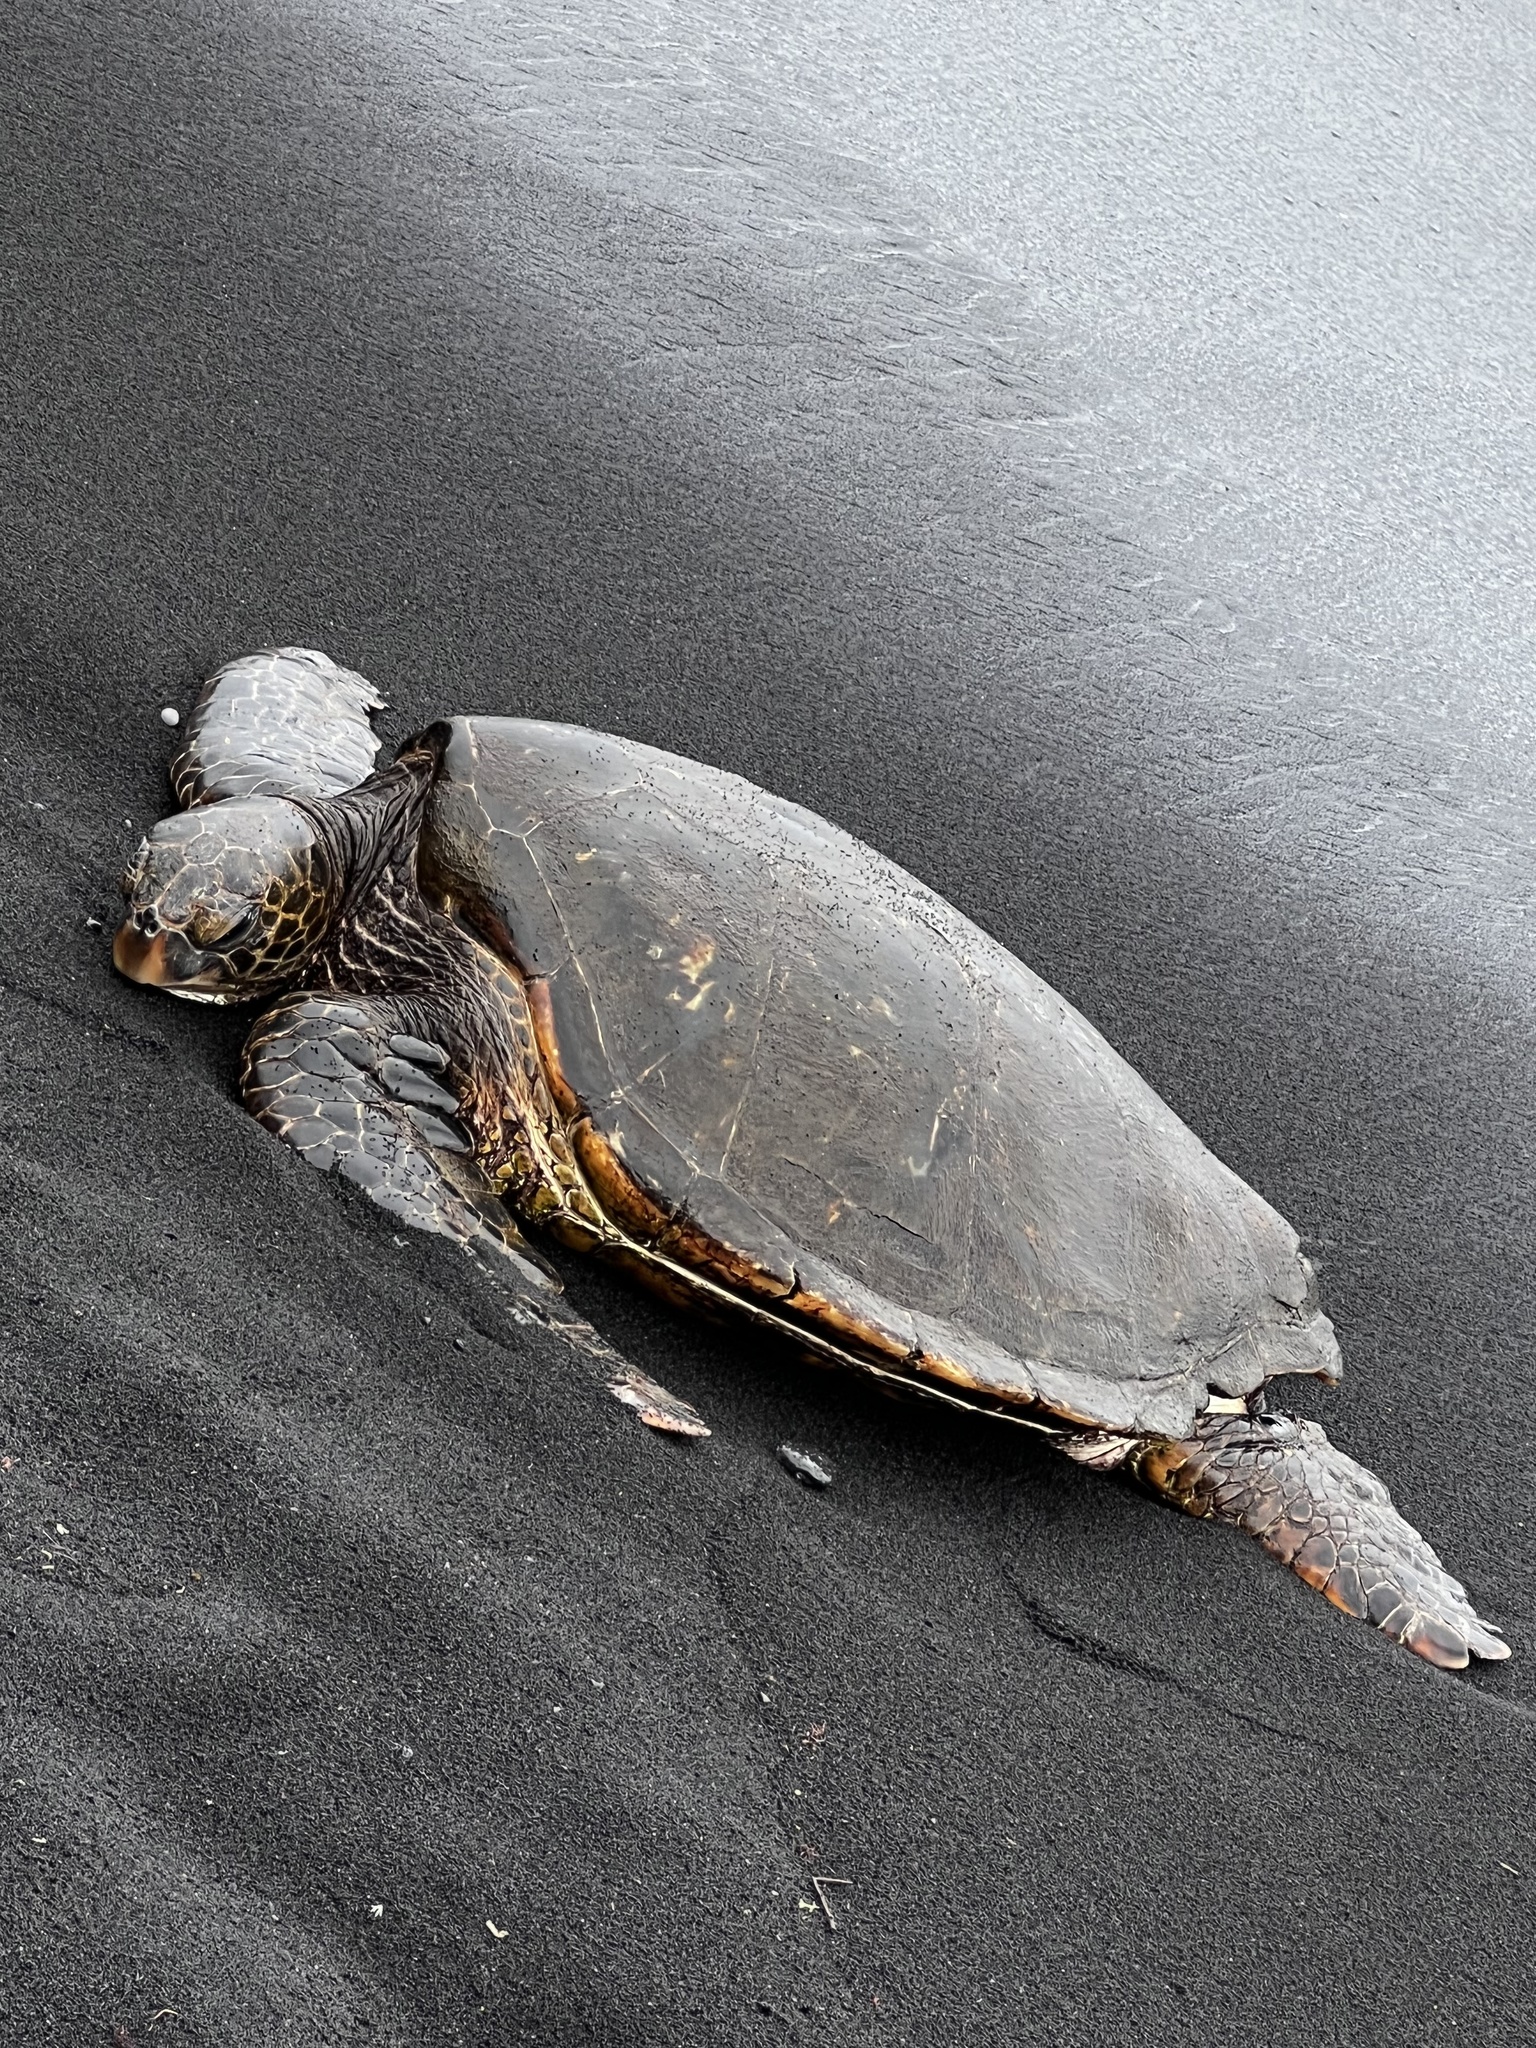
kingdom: Animalia
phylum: Chordata
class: Testudines
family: Cheloniidae
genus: Chelonia
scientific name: Chelonia mydas
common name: Green turtle
